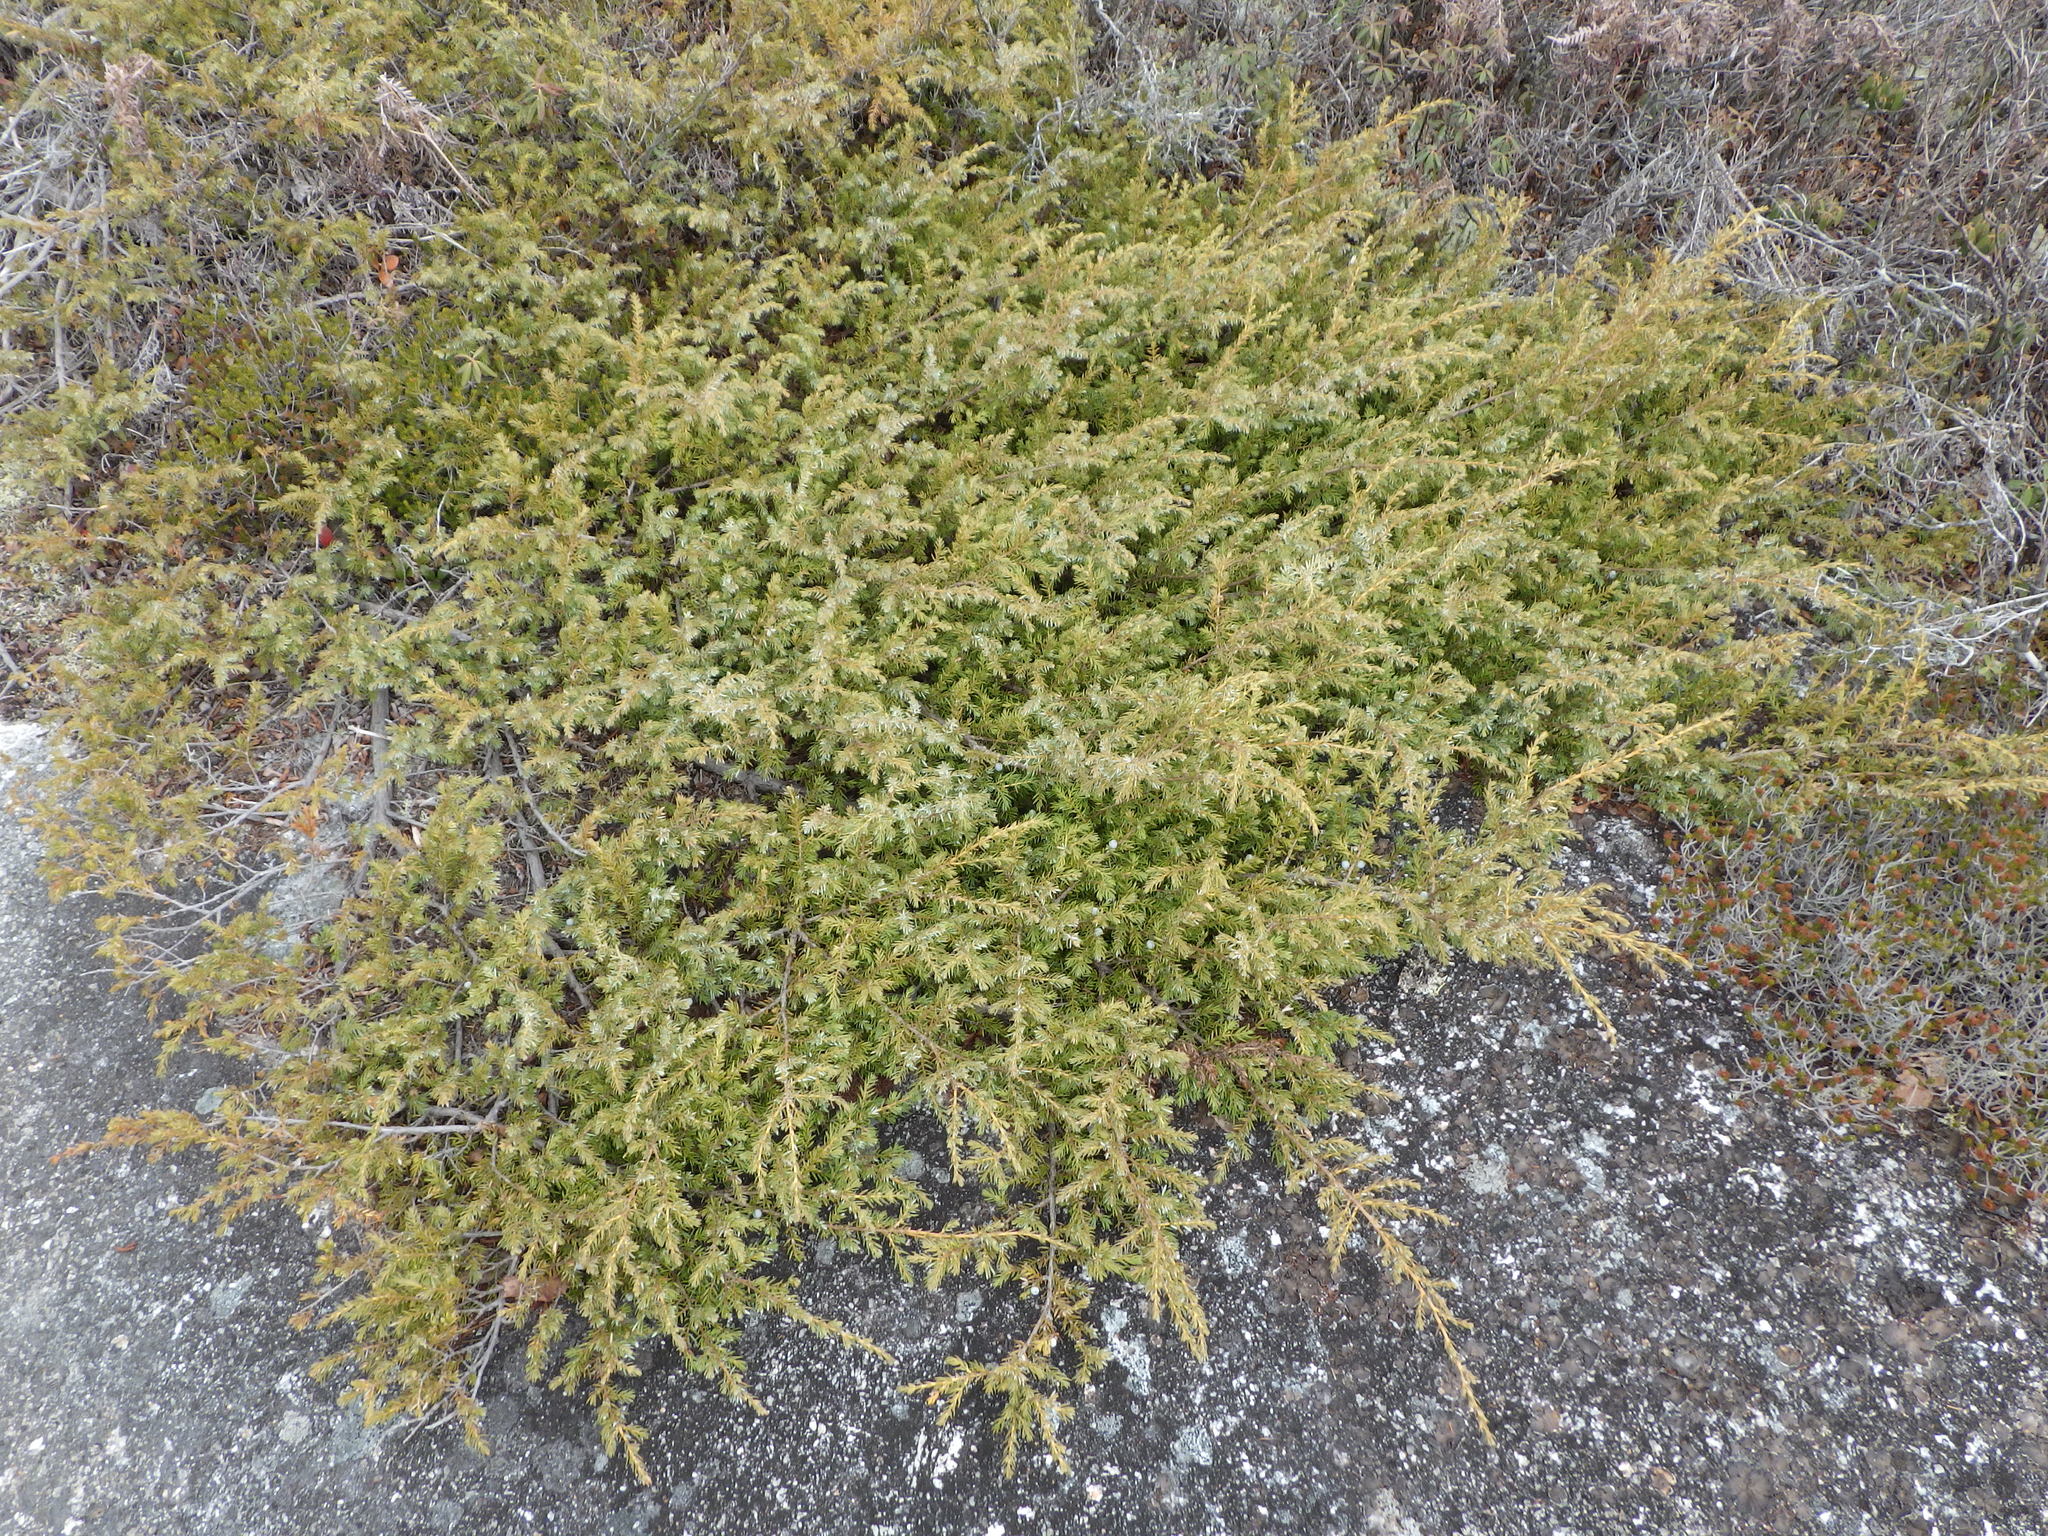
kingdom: Plantae
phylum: Tracheophyta
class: Pinopsida
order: Pinales
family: Cupressaceae
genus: Juniperus
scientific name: Juniperus communis
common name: Common juniper
